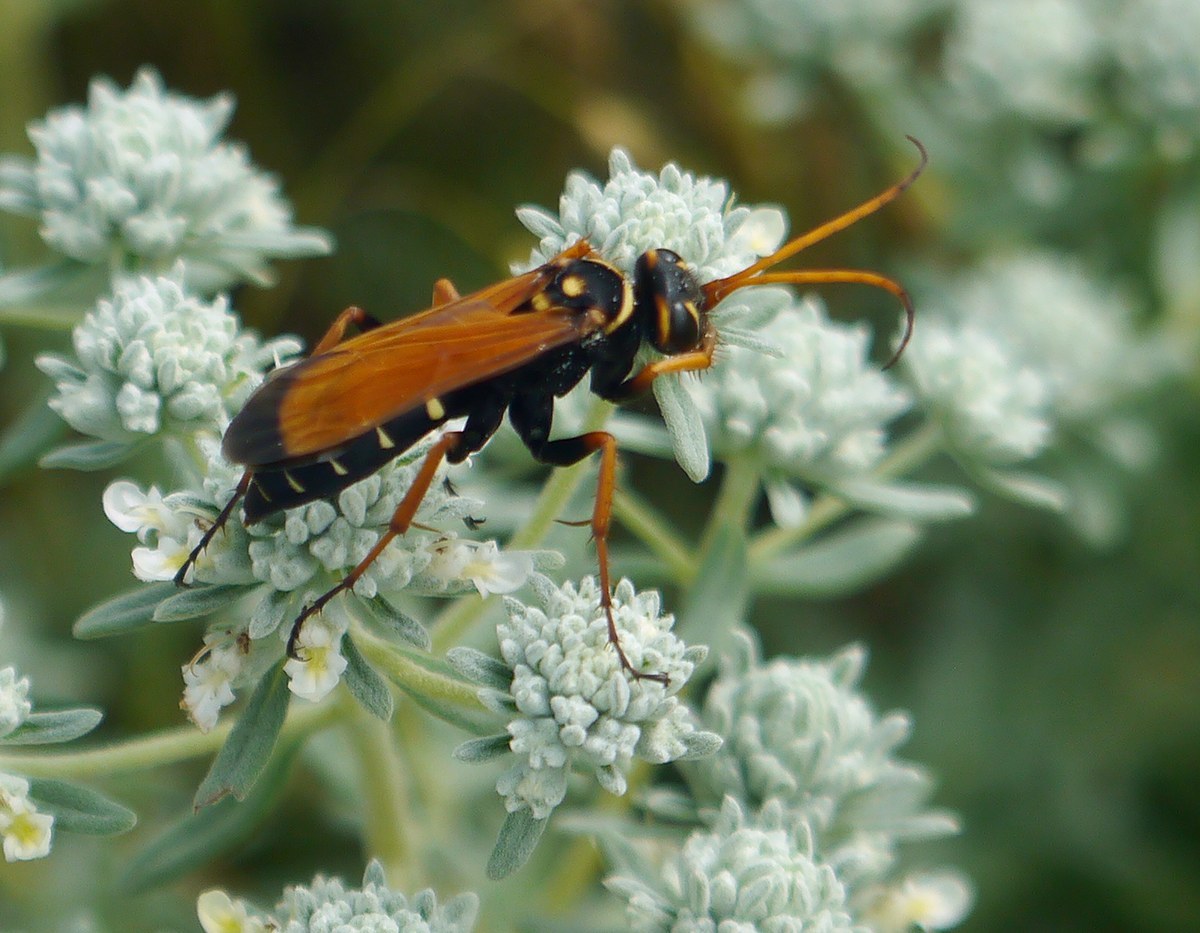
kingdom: Animalia
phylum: Arthropoda
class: Insecta
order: Hymenoptera
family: Pompilidae
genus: Parabatozonus
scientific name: Parabatozonus lacerticida
